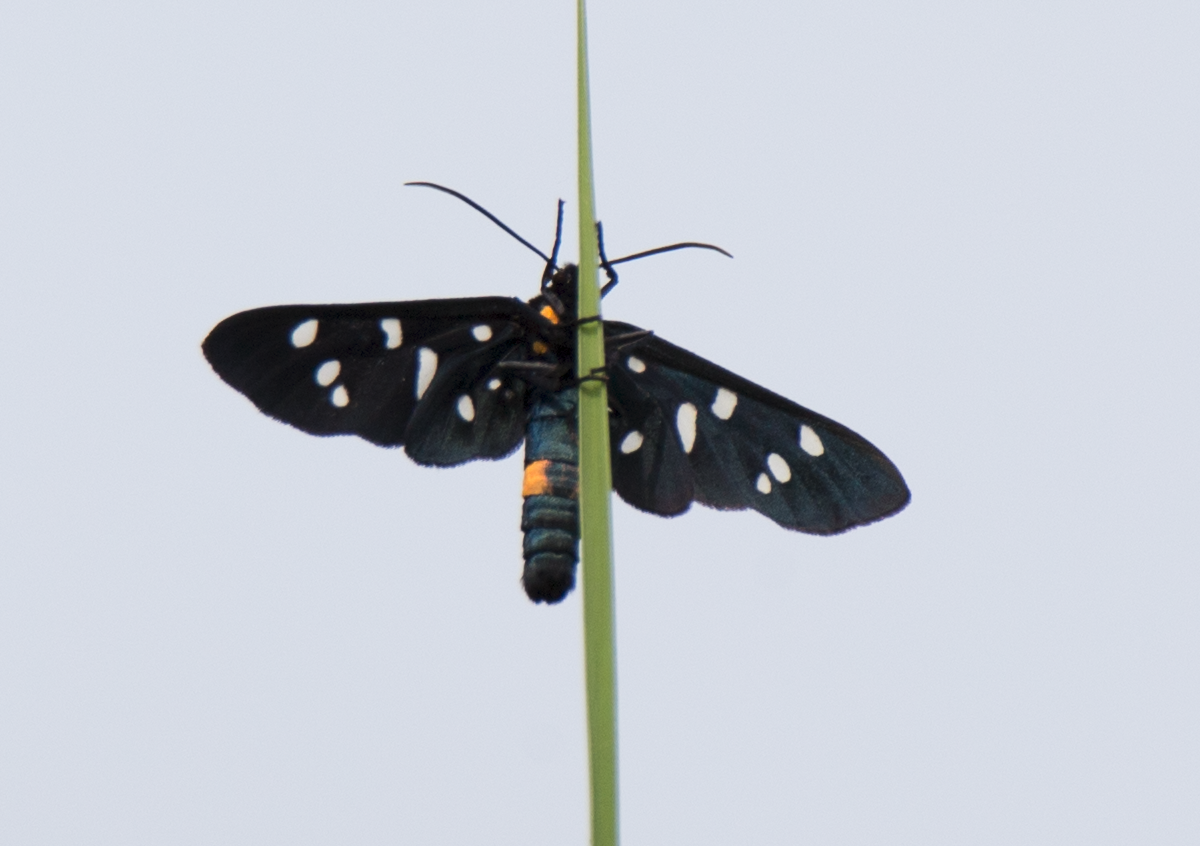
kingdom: Animalia
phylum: Arthropoda
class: Insecta
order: Lepidoptera
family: Erebidae
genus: Amata
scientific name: Amata phegea
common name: Nine-spotted
